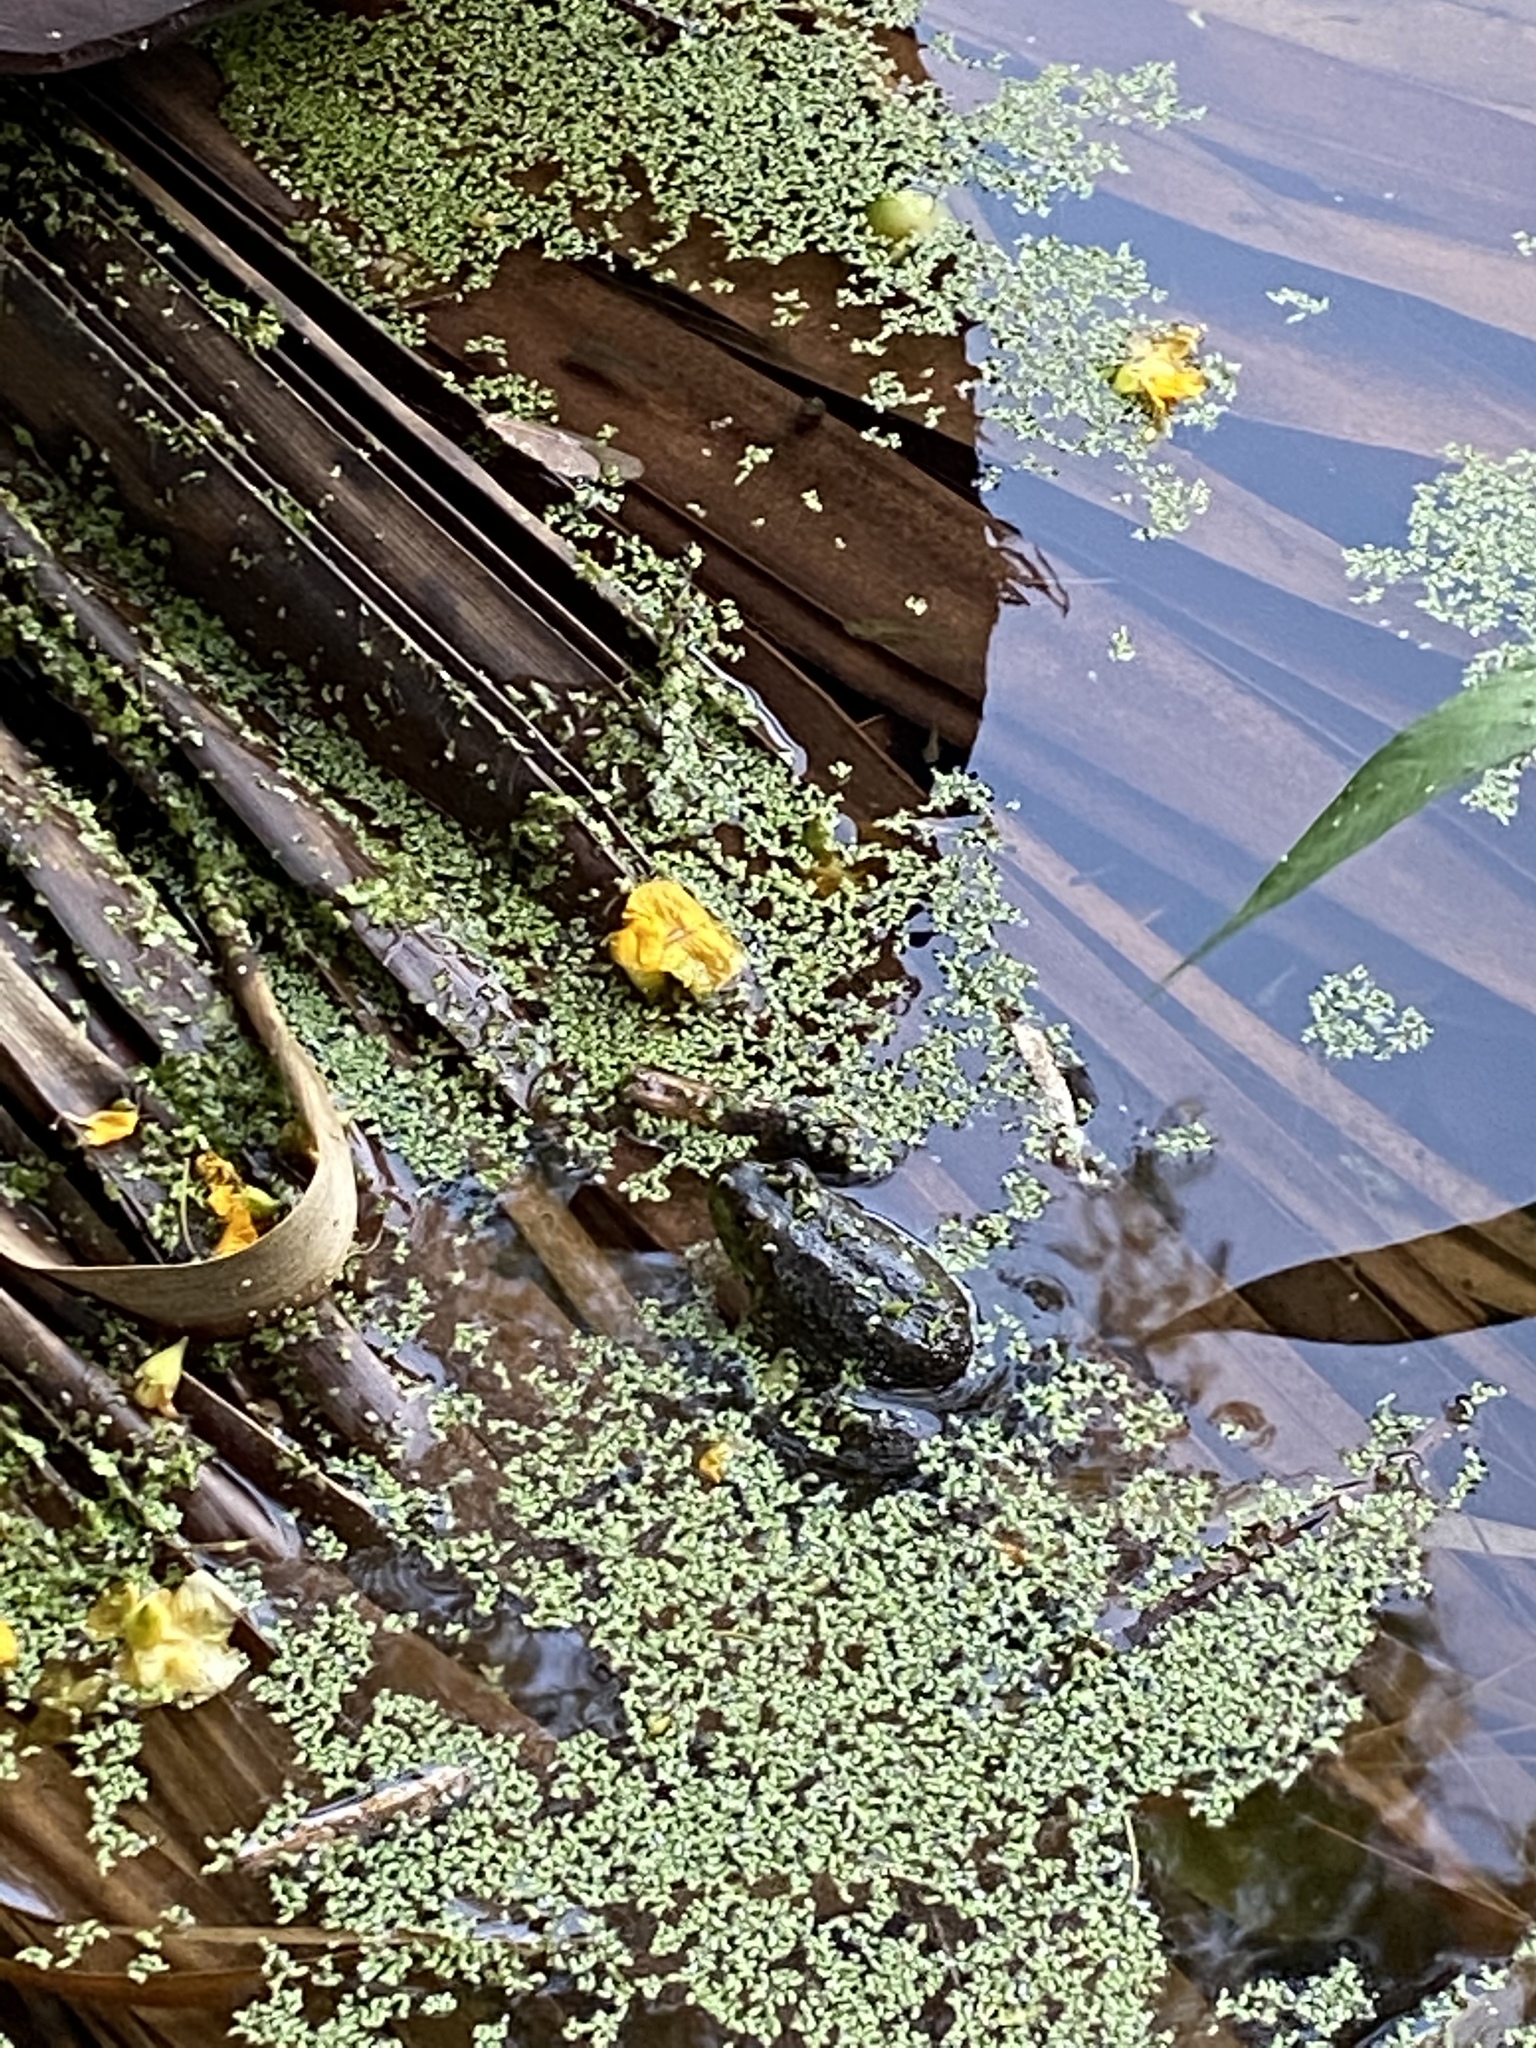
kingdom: Animalia
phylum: Chordata
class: Amphibia
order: Anura
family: Ranidae
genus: Lithobates
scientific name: Lithobates catesbeianus
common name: American bullfrog
